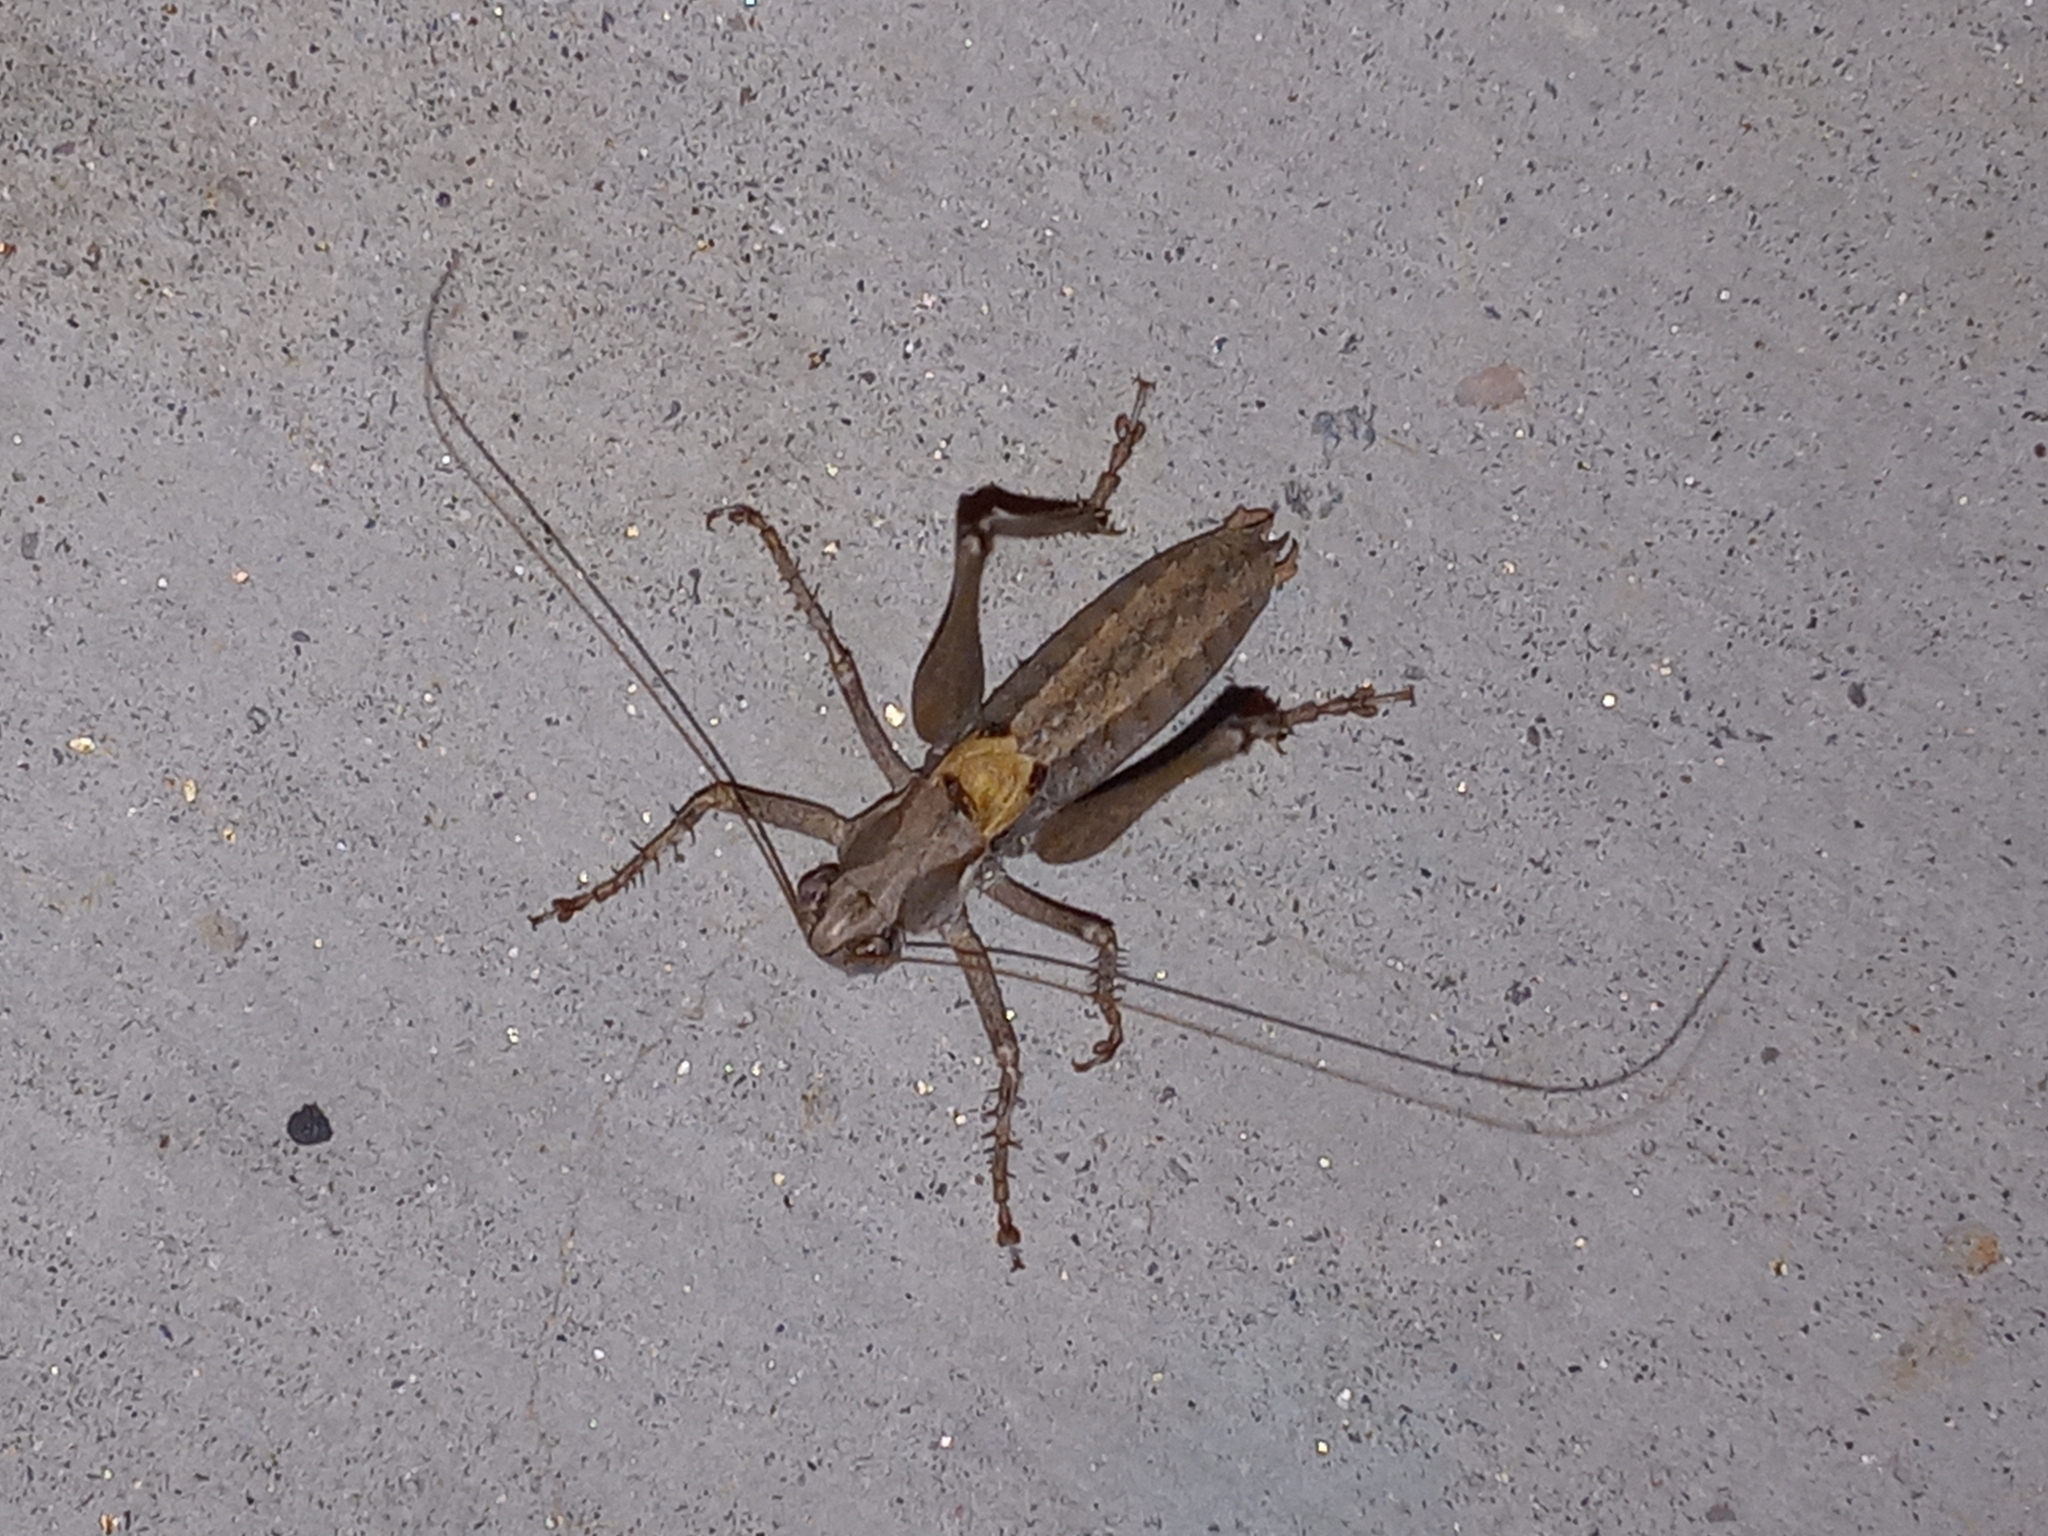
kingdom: Animalia
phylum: Arthropoda
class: Insecta
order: Orthoptera
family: Tettigoniidae
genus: Idiostatus
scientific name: Idiostatus aequalis
